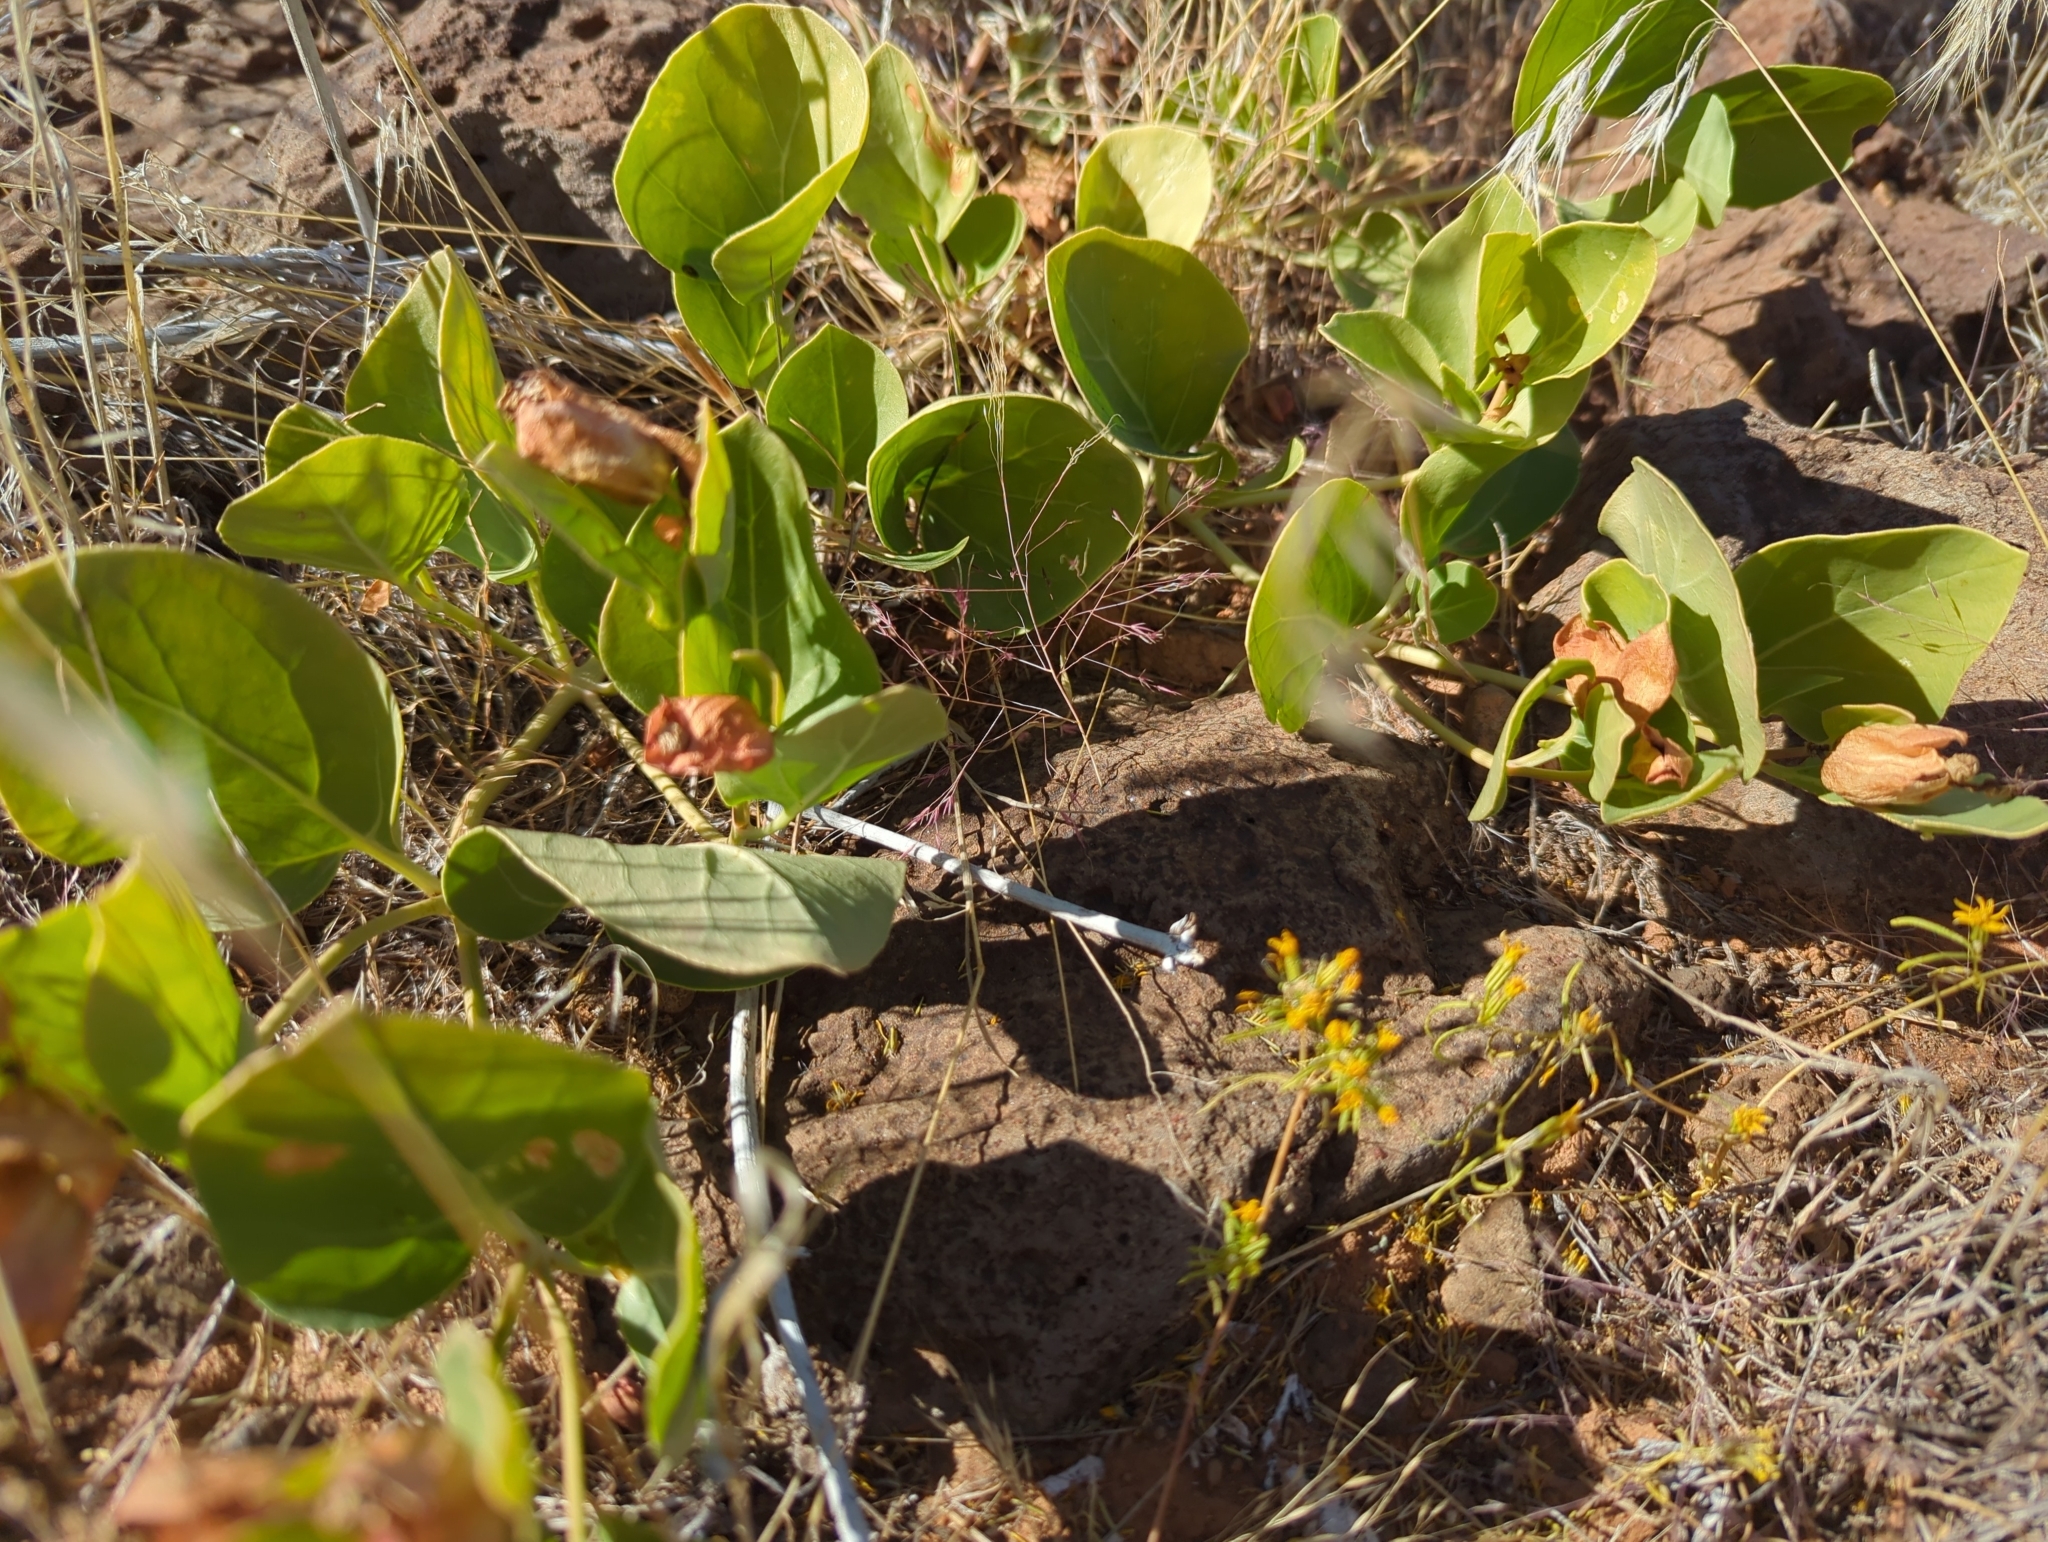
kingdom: Plantae
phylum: Tracheophyta
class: Magnoliopsida
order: Caryophyllales
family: Nyctaginaceae
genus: Mirabilis
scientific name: Mirabilis multiflora
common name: Froebel's four-o'clock
